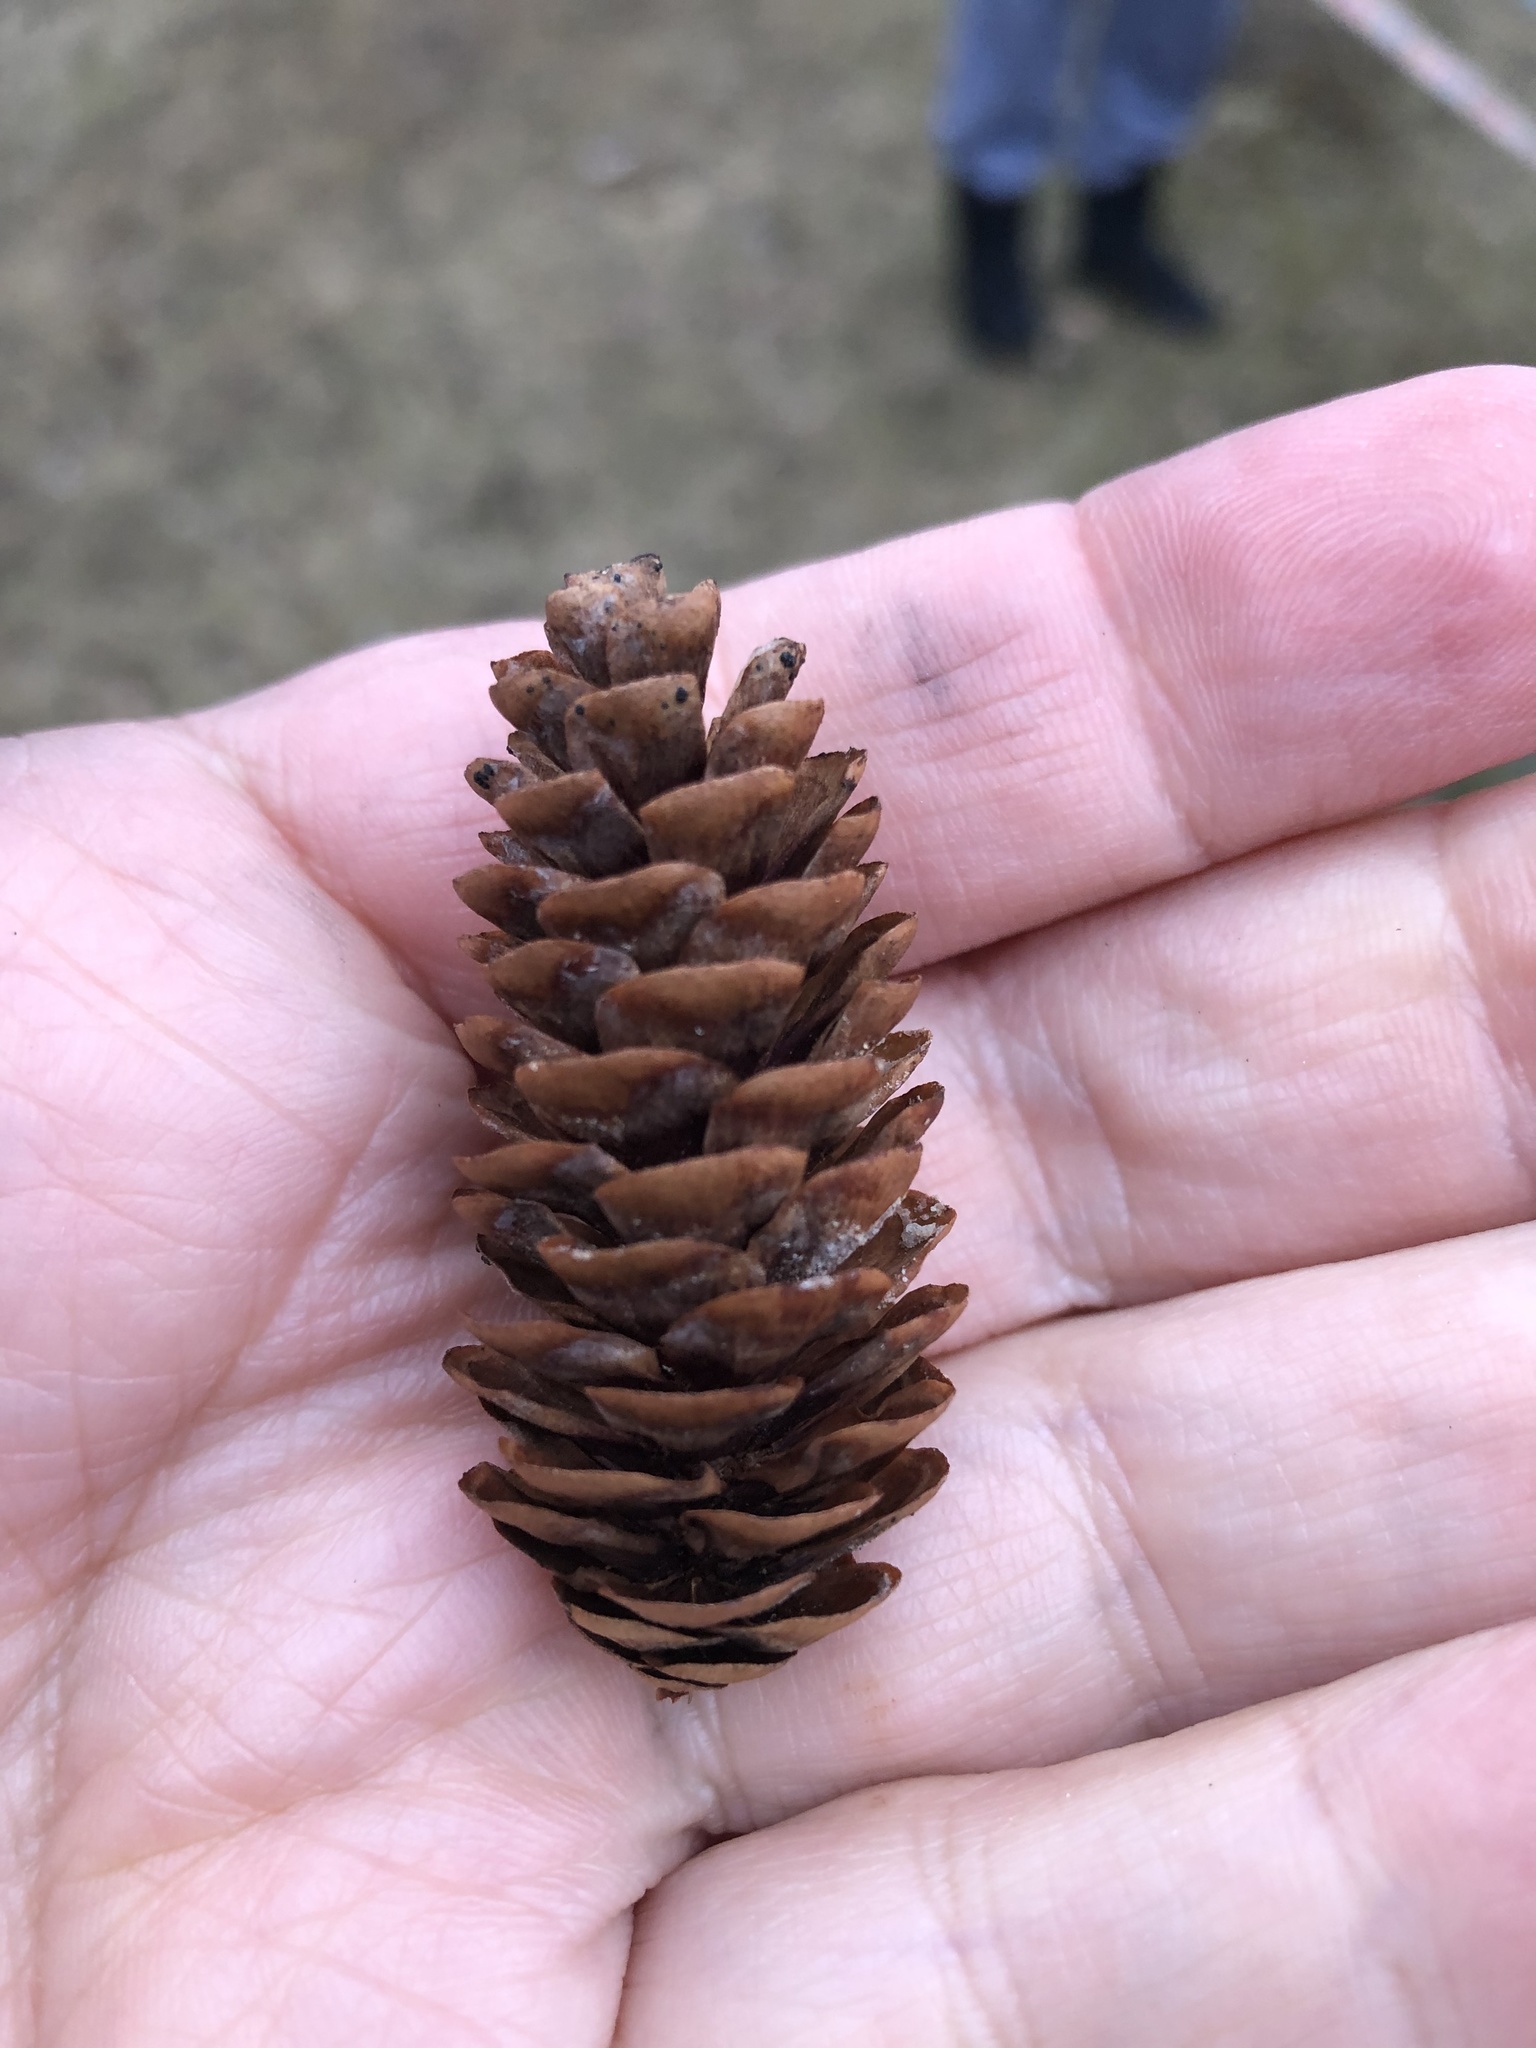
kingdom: Plantae
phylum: Tracheophyta
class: Pinopsida
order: Pinales
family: Pinaceae
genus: Picea
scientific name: Picea glauca
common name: White spruce
